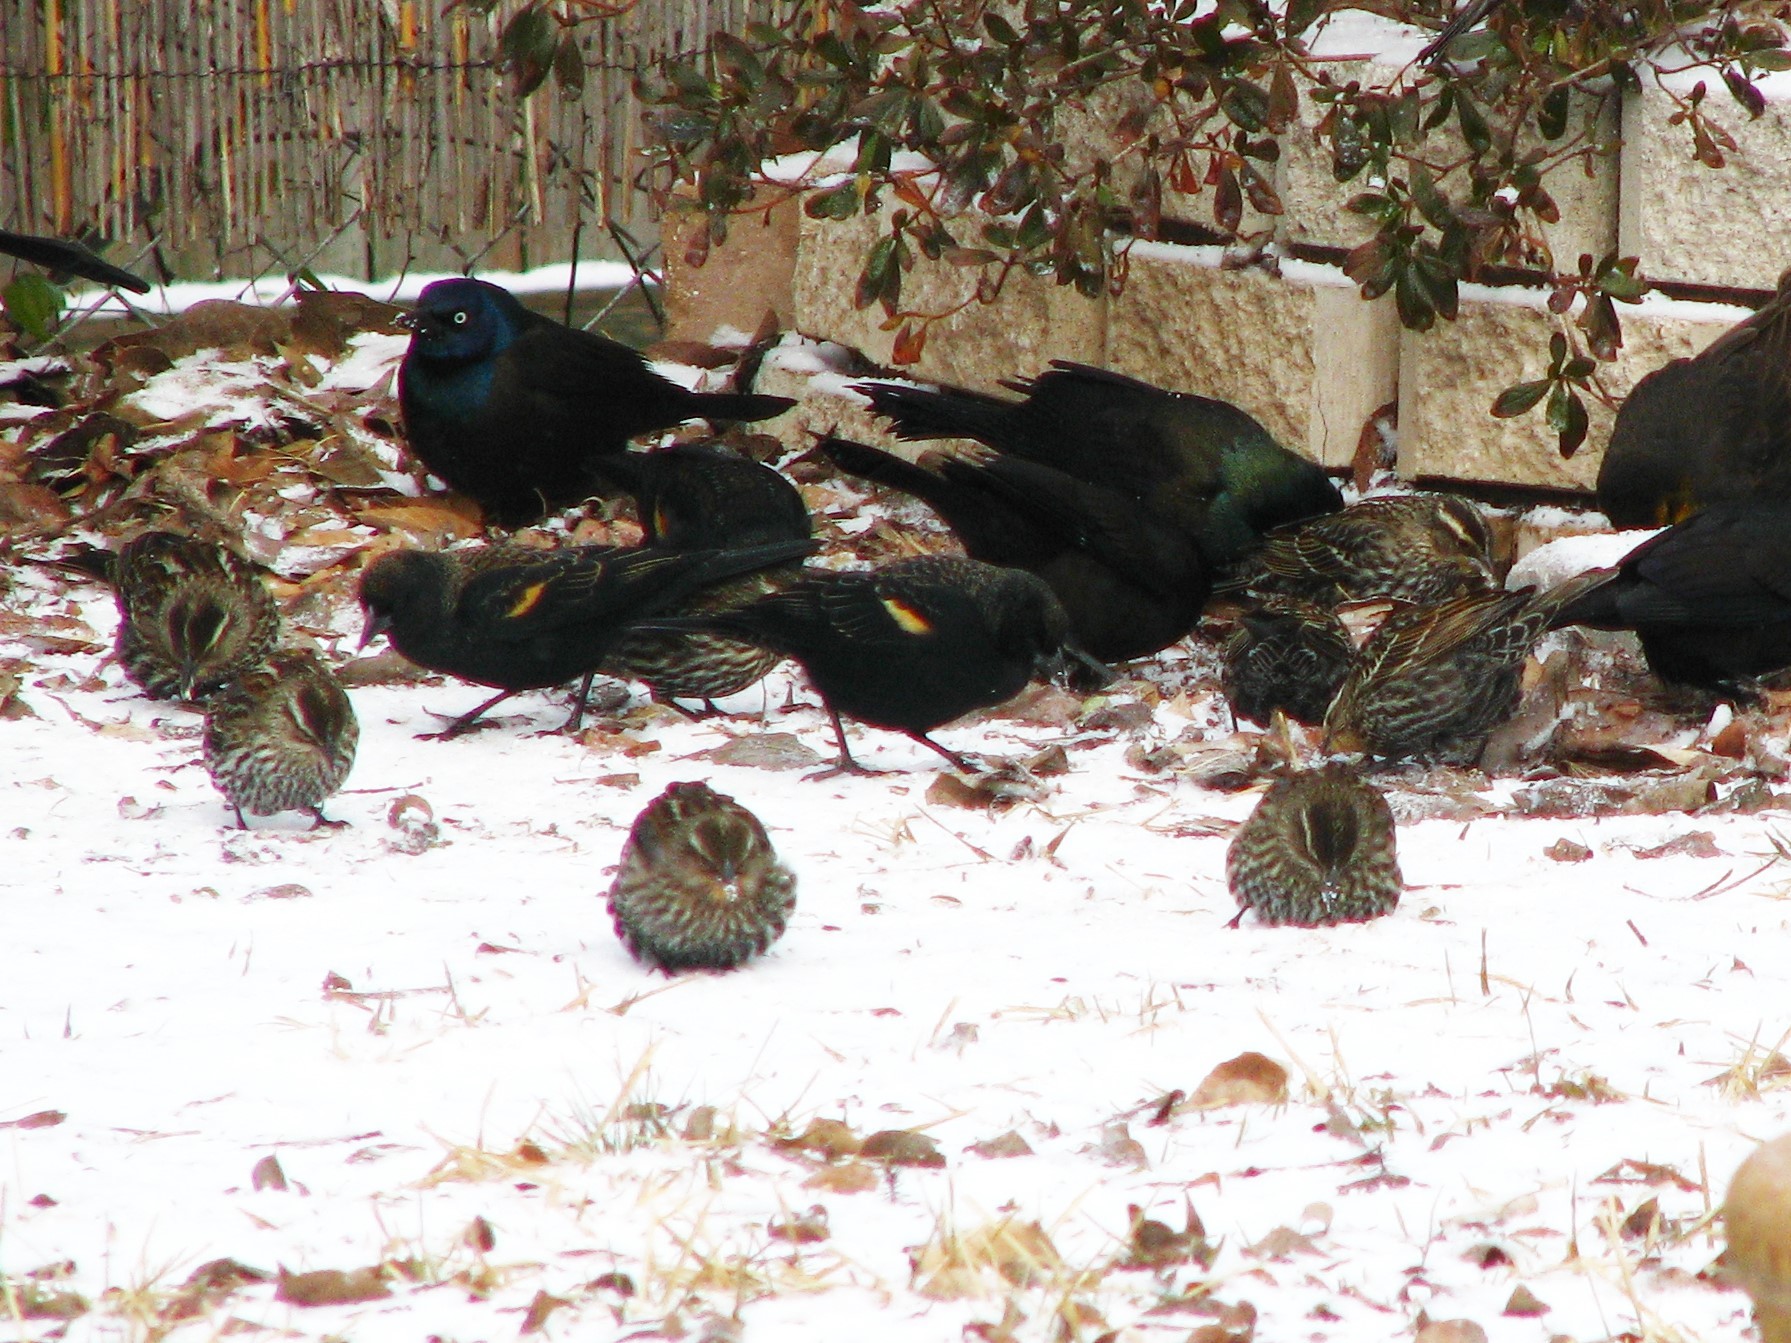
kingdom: Animalia
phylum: Chordata
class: Aves
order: Passeriformes
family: Icteridae
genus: Agelaius
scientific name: Agelaius phoeniceus
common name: Red-winged blackbird
